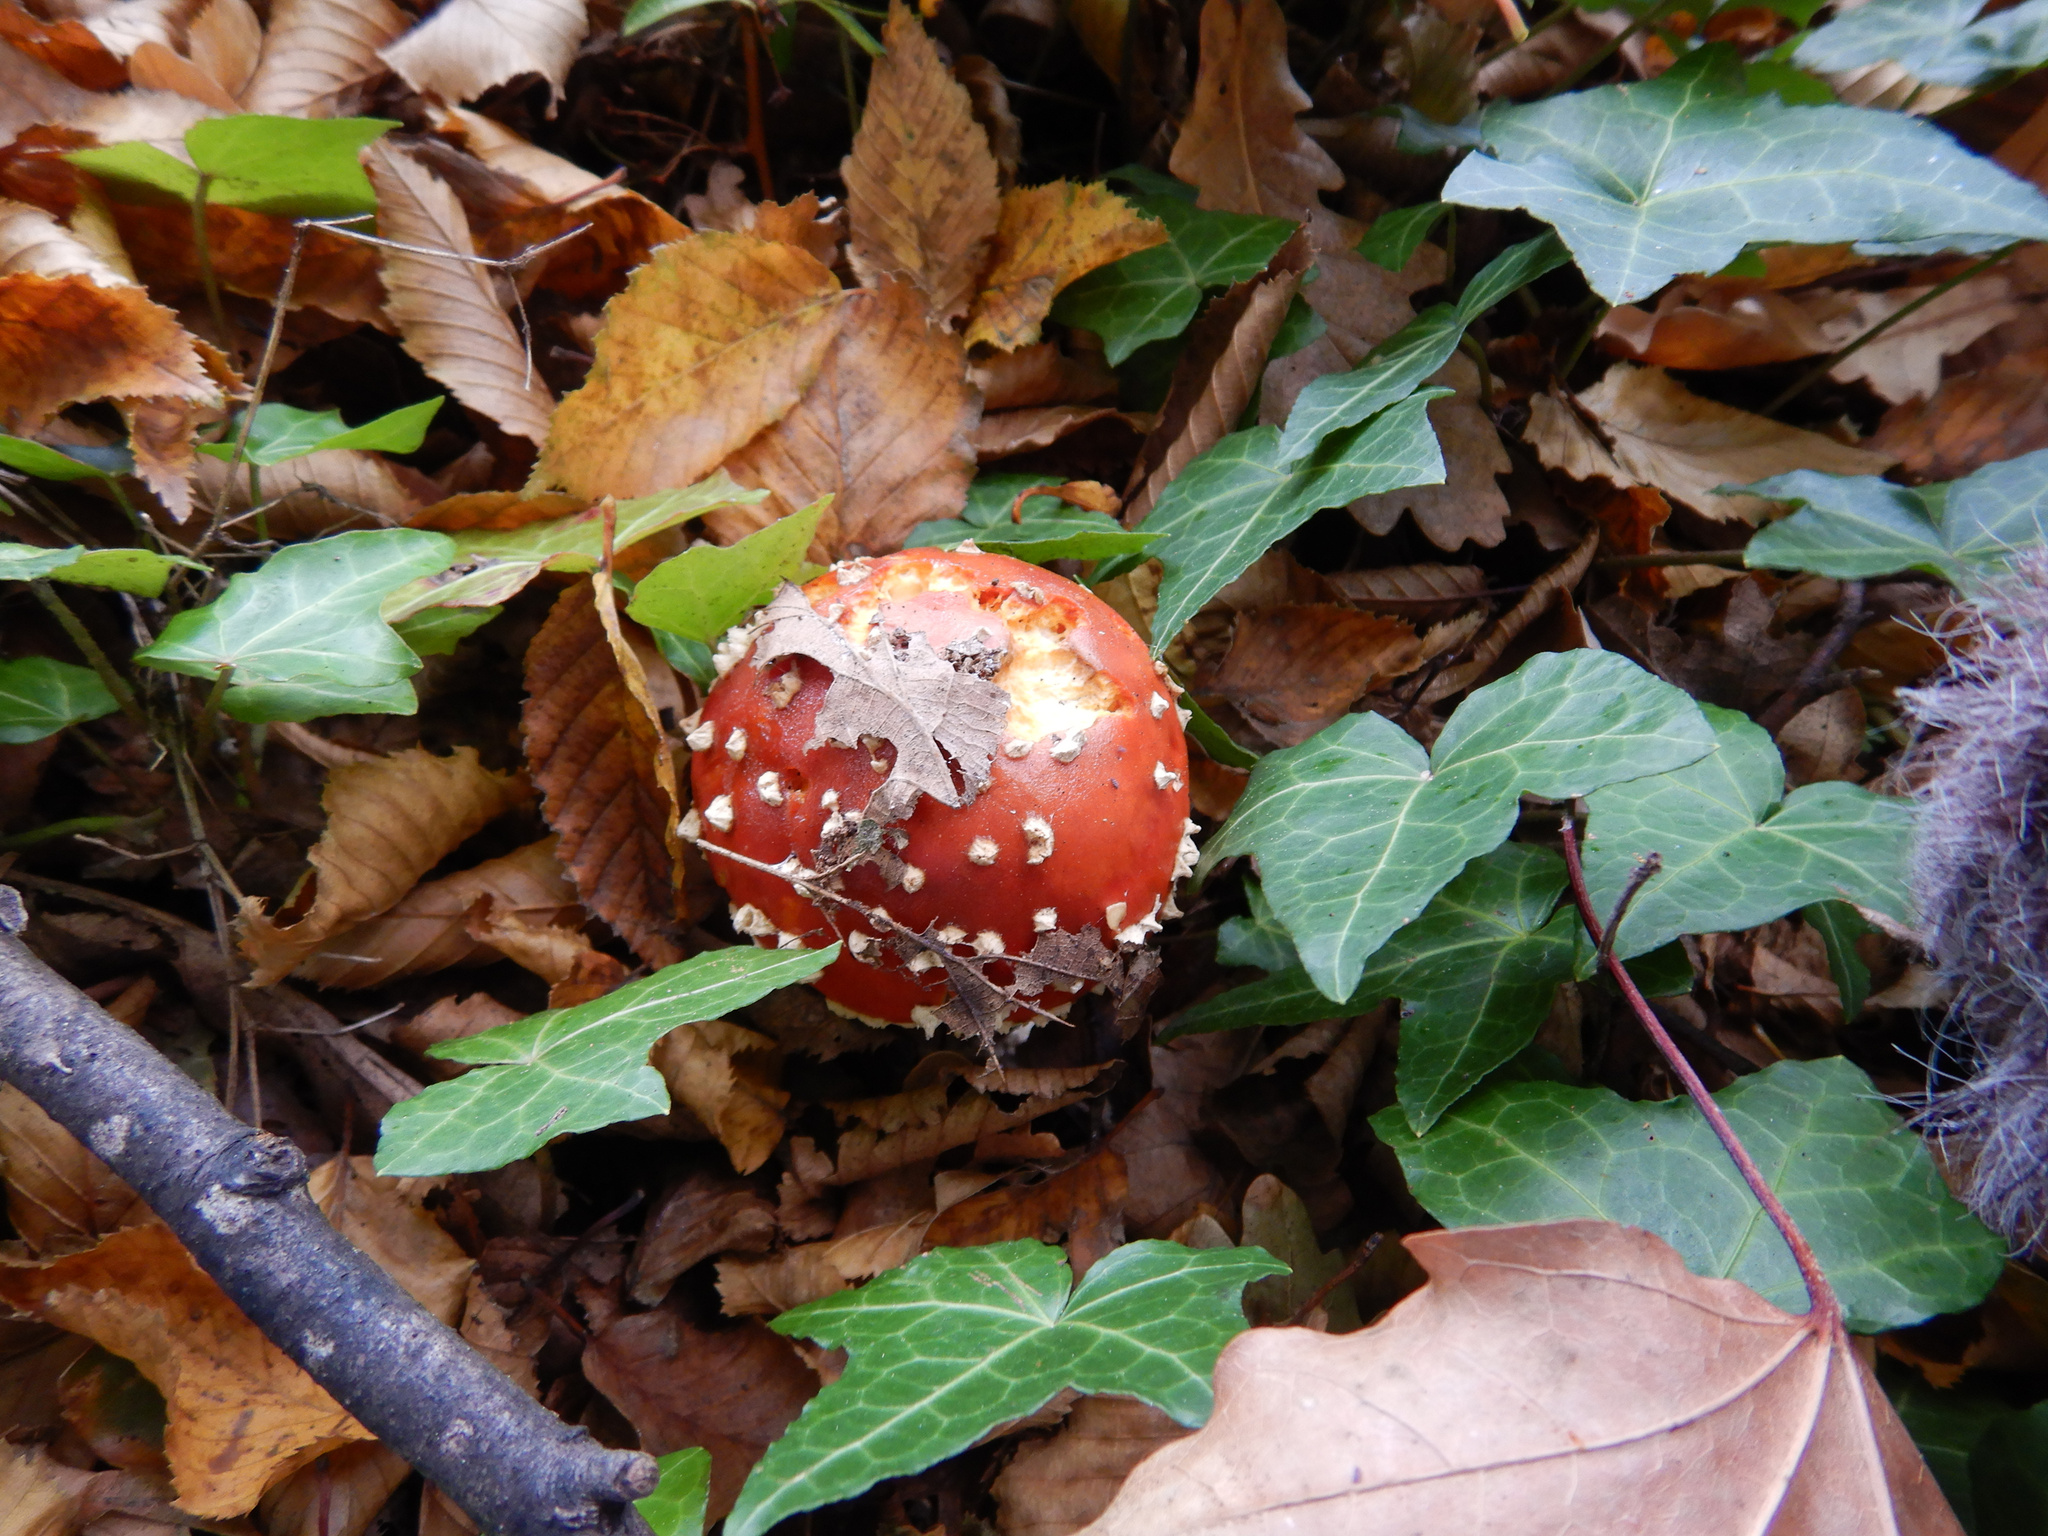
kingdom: Fungi
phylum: Basidiomycota
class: Agaricomycetes
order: Agaricales
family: Amanitaceae
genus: Amanita
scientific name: Amanita muscaria
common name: Fly agaric
